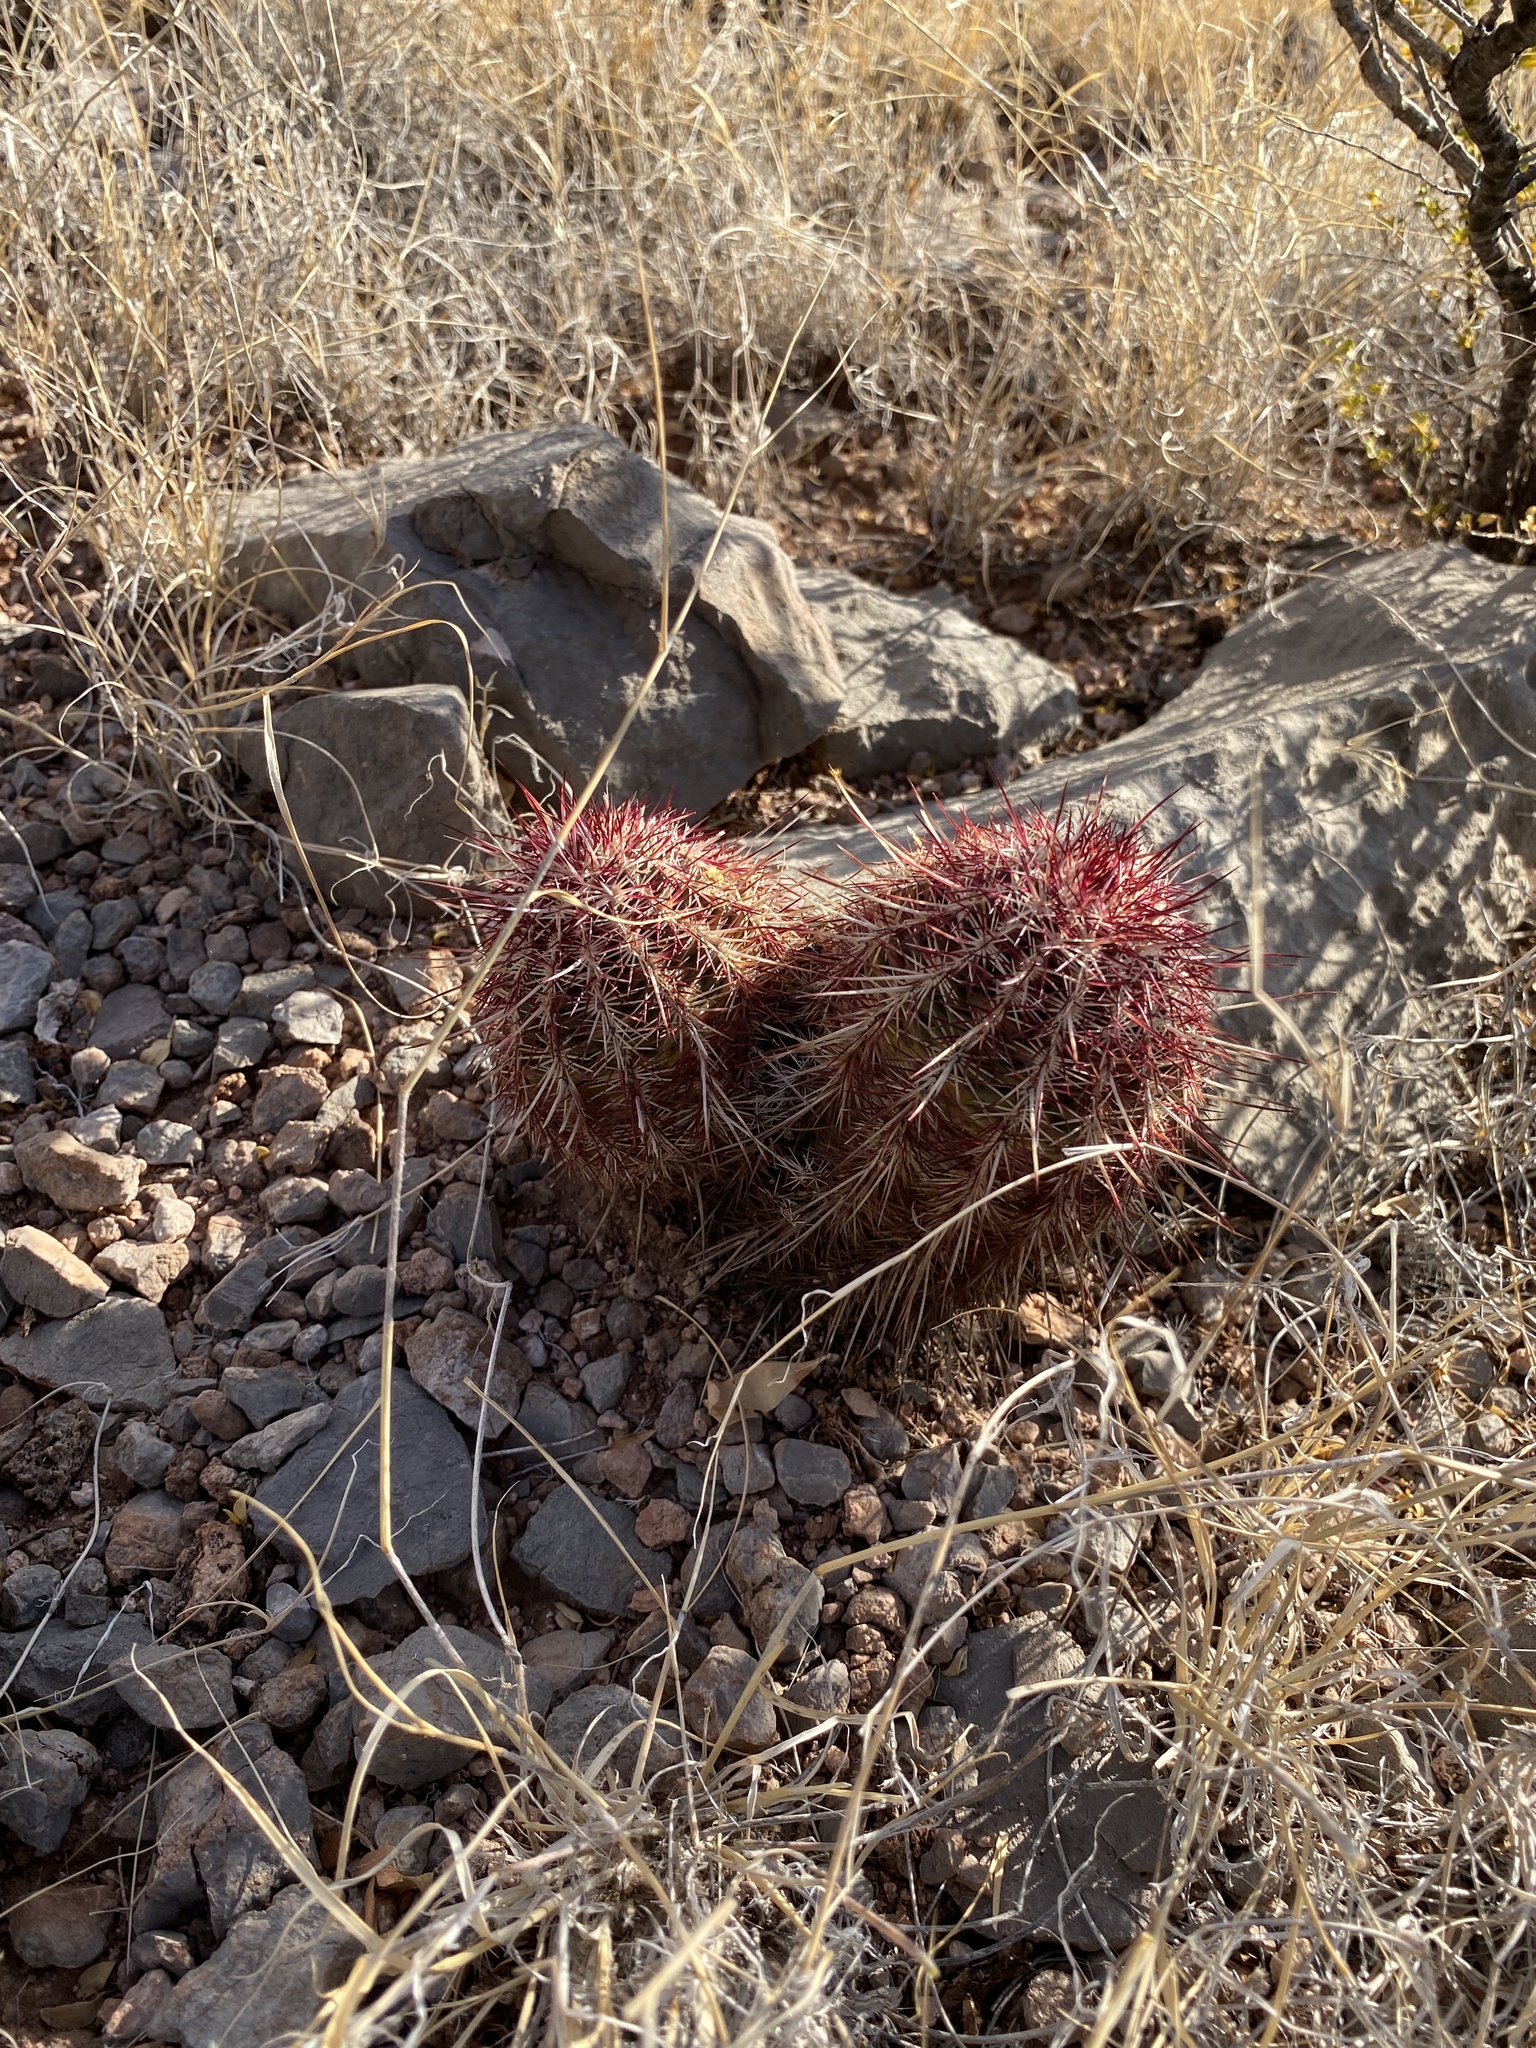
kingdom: Plantae
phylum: Tracheophyta
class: Magnoliopsida
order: Caryophyllales
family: Cactaceae
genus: Echinocereus
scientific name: Echinocereus viridiflorus
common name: Nylon hedgehog cactus
